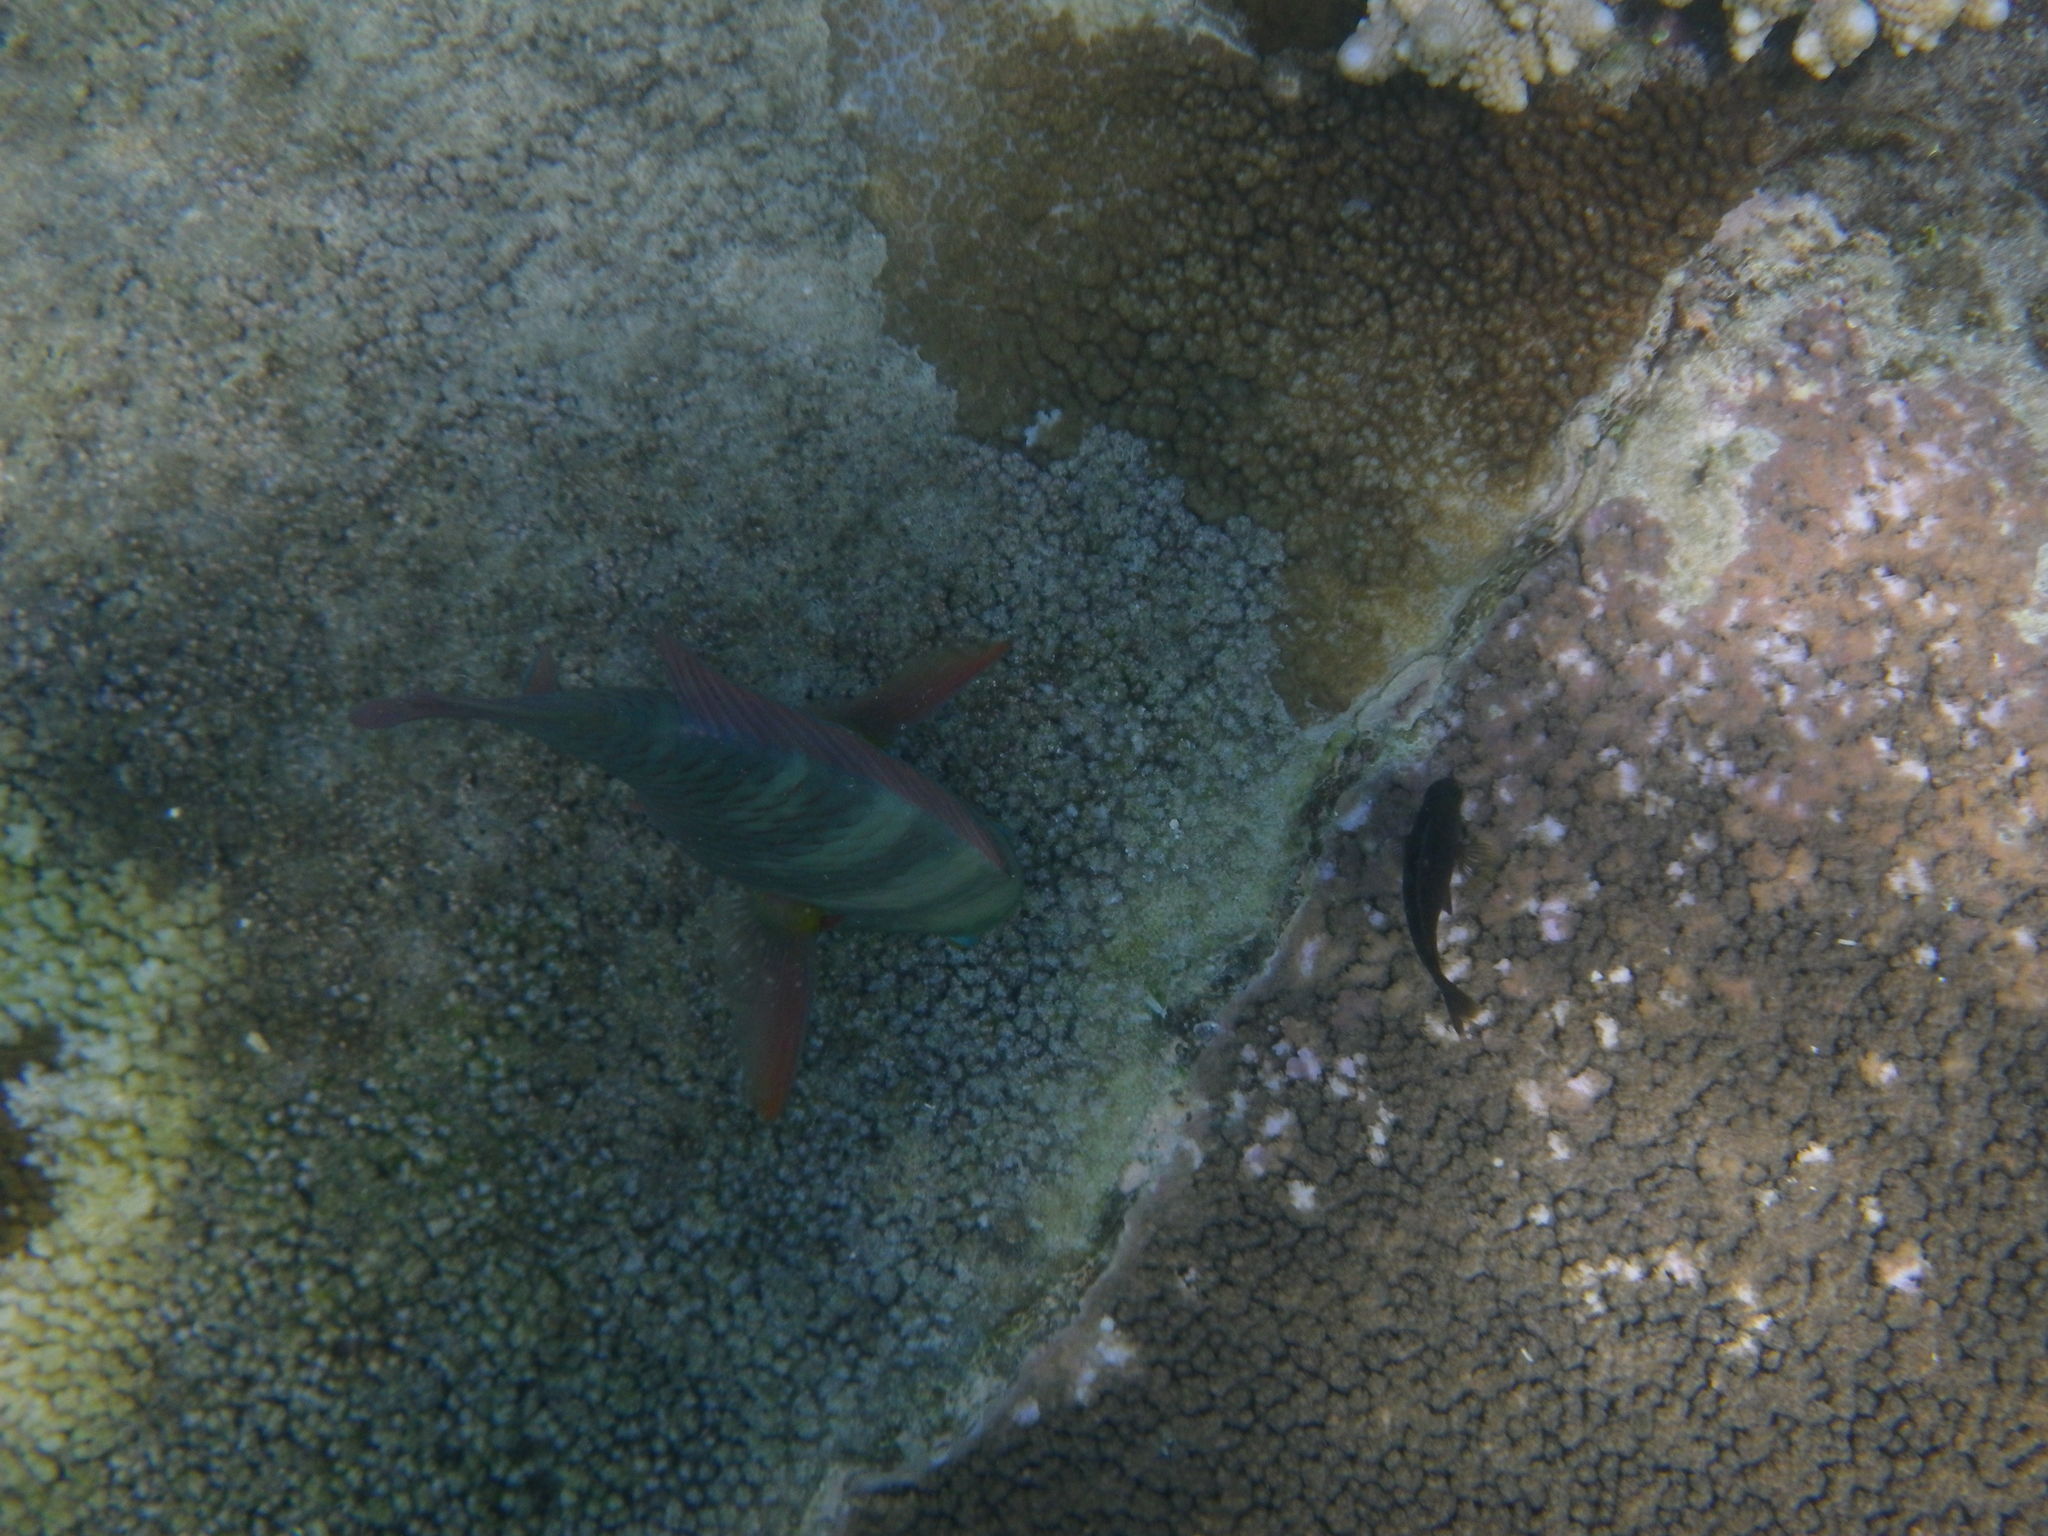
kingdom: Animalia
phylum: Chordata
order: Perciformes
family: Scaridae
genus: Chlorurus
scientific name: Chlorurus bleekeri
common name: Bleeker's parrotfish
